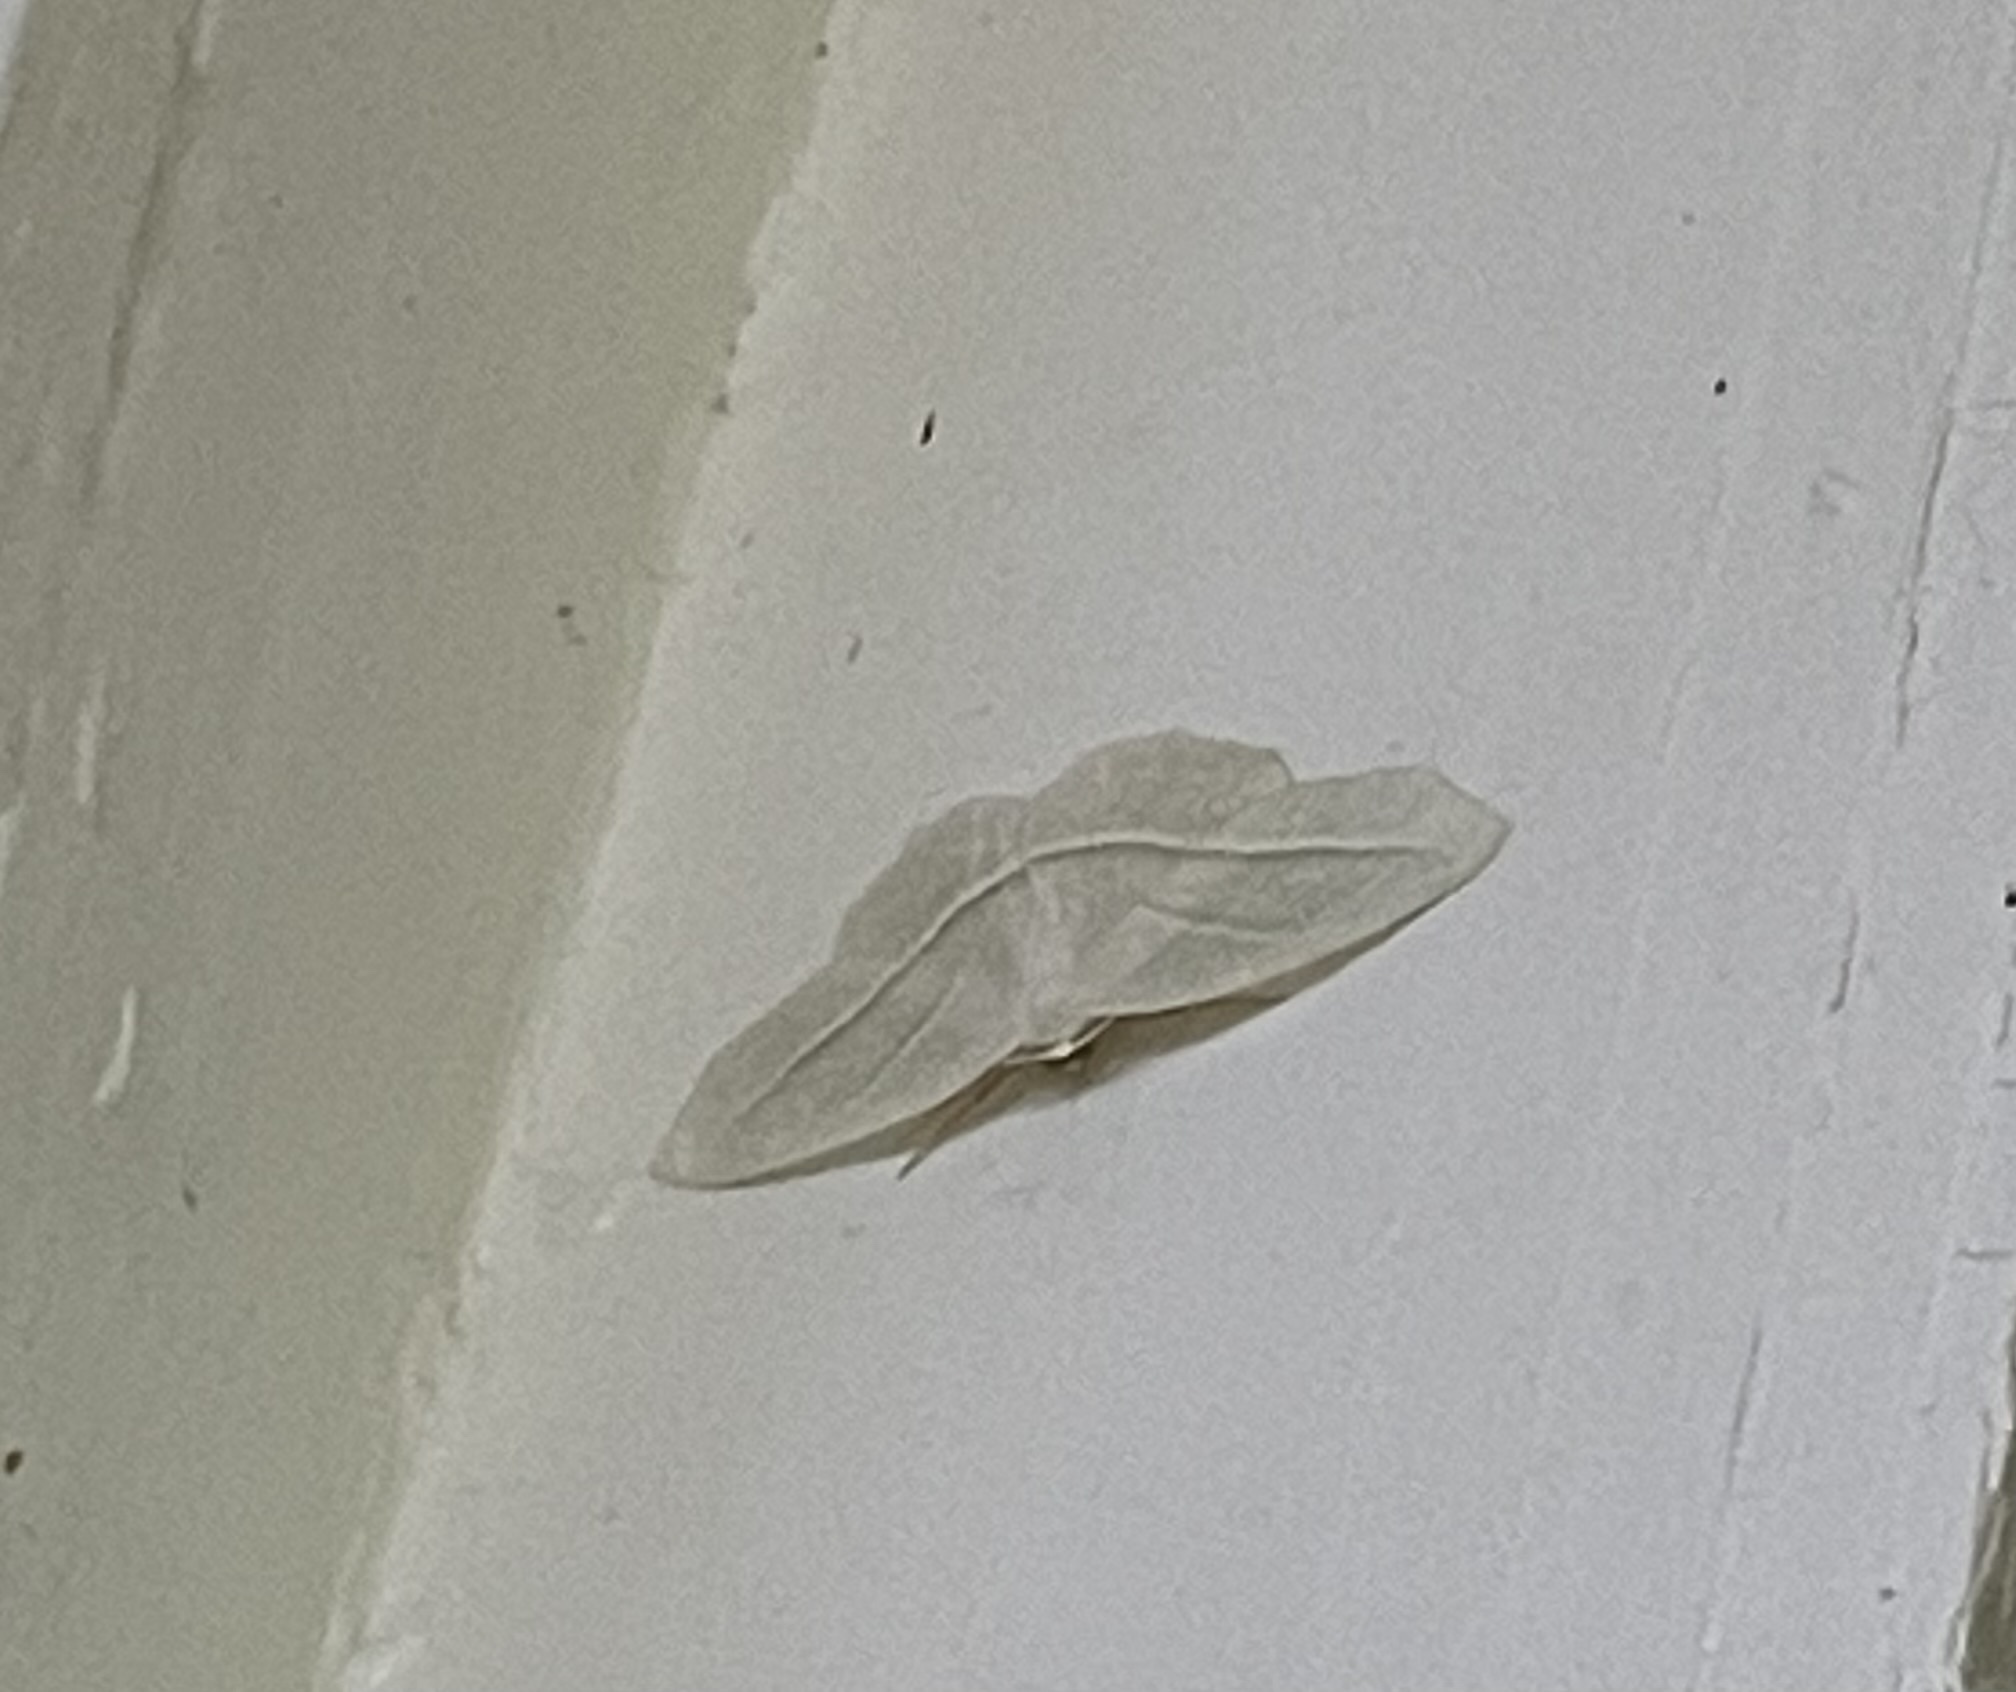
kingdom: Animalia
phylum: Arthropoda
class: Insecta
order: Lepidoptera
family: Geometridae
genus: Campaea
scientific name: Campaea perlata
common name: Fringed looper
